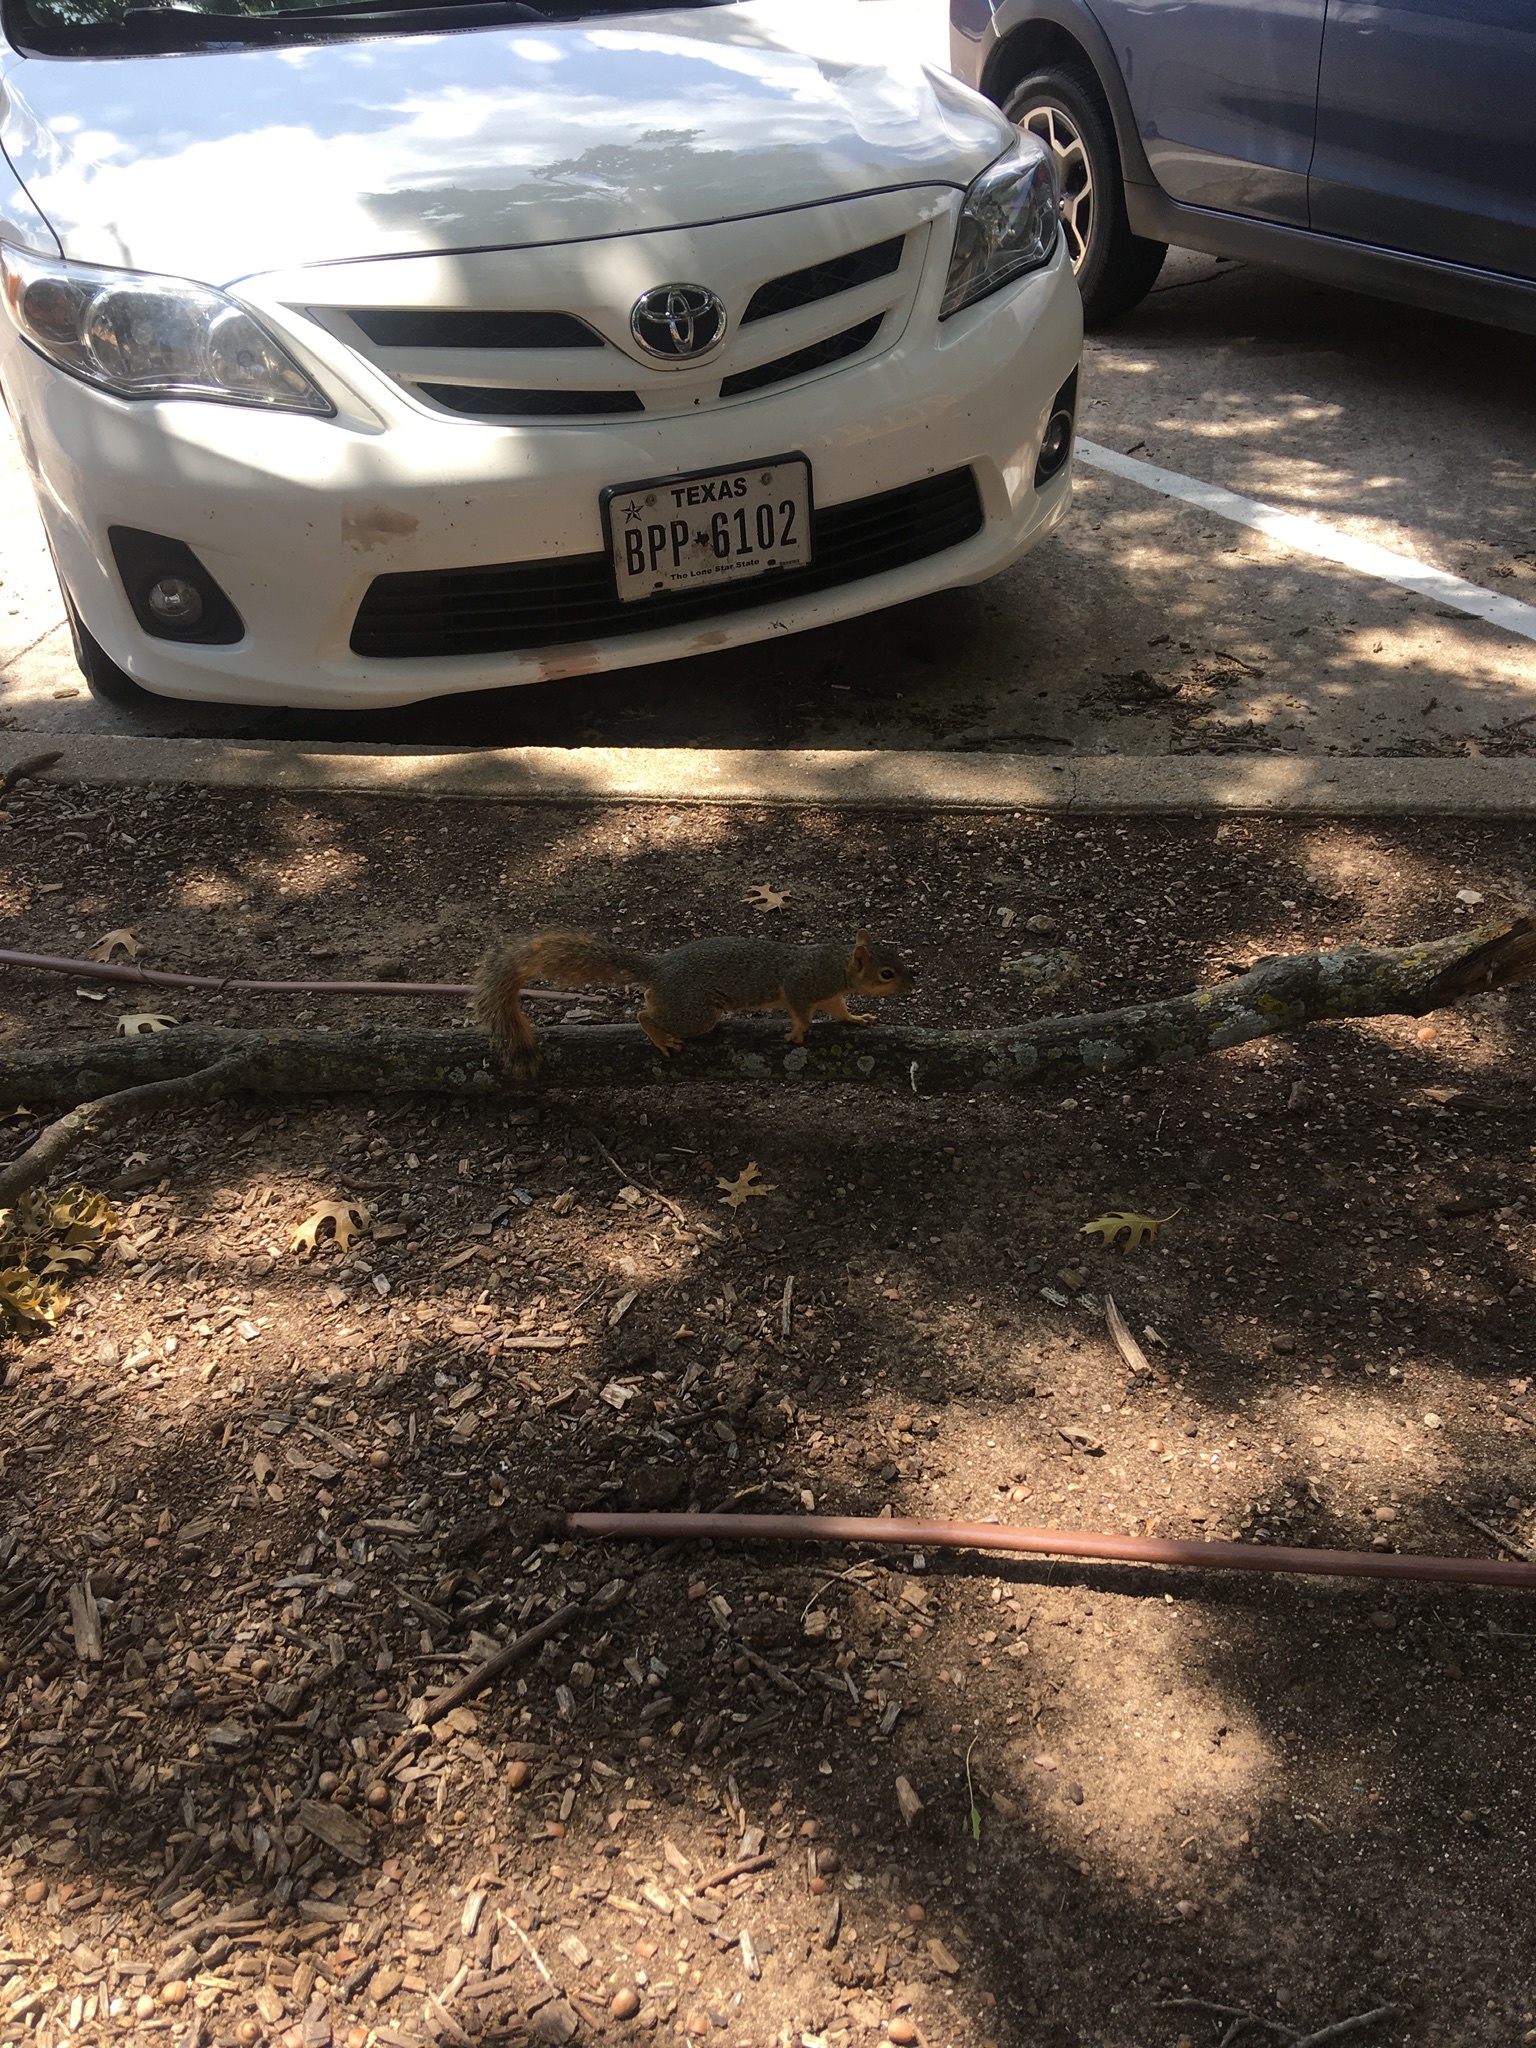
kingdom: Animalia
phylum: Chordata
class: Mammalia
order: Rodentia
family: Sciuridae
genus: Sciurus
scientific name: Sciurus niger
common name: Fox squirrel
